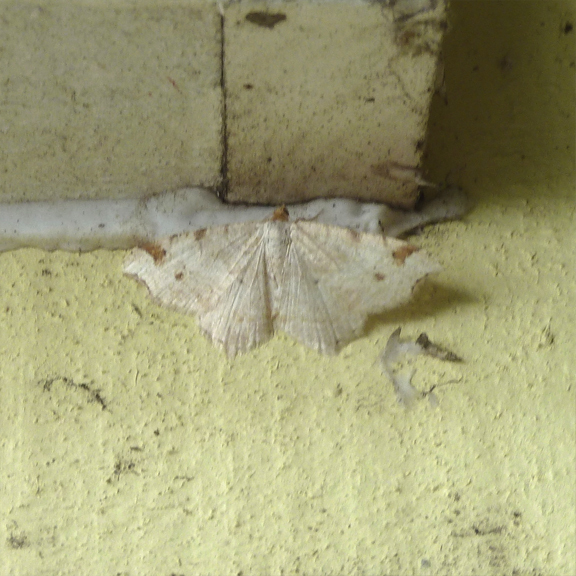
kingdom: Animalia
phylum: Arthropoda
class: Insecta
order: Lepidoptera
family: Geometridae
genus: Macaria
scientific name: Macaria bisignata
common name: Red-headed inchworm
